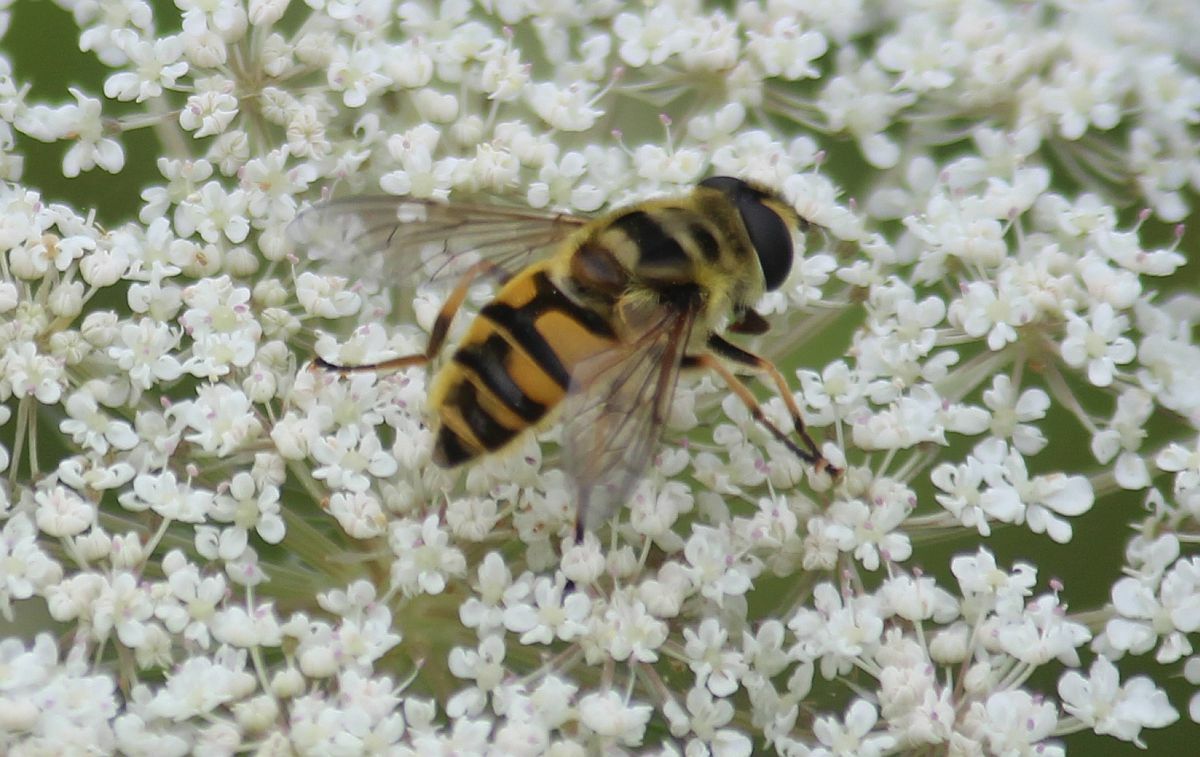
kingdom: Animalia
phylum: Arthropoda
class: Insecta
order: Diptera
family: Syrphidae
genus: Myathropa
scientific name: Myathropa florea
